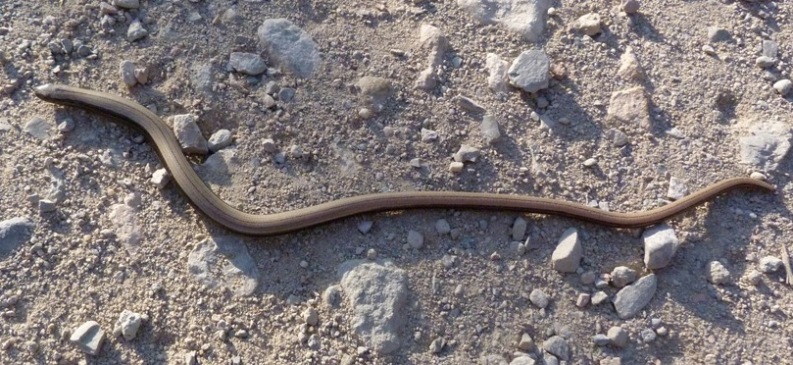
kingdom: Animalia
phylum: Chordata
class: Squamata
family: Anguidae
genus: Anguis
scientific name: Anguis fragilis
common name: Slow worm
